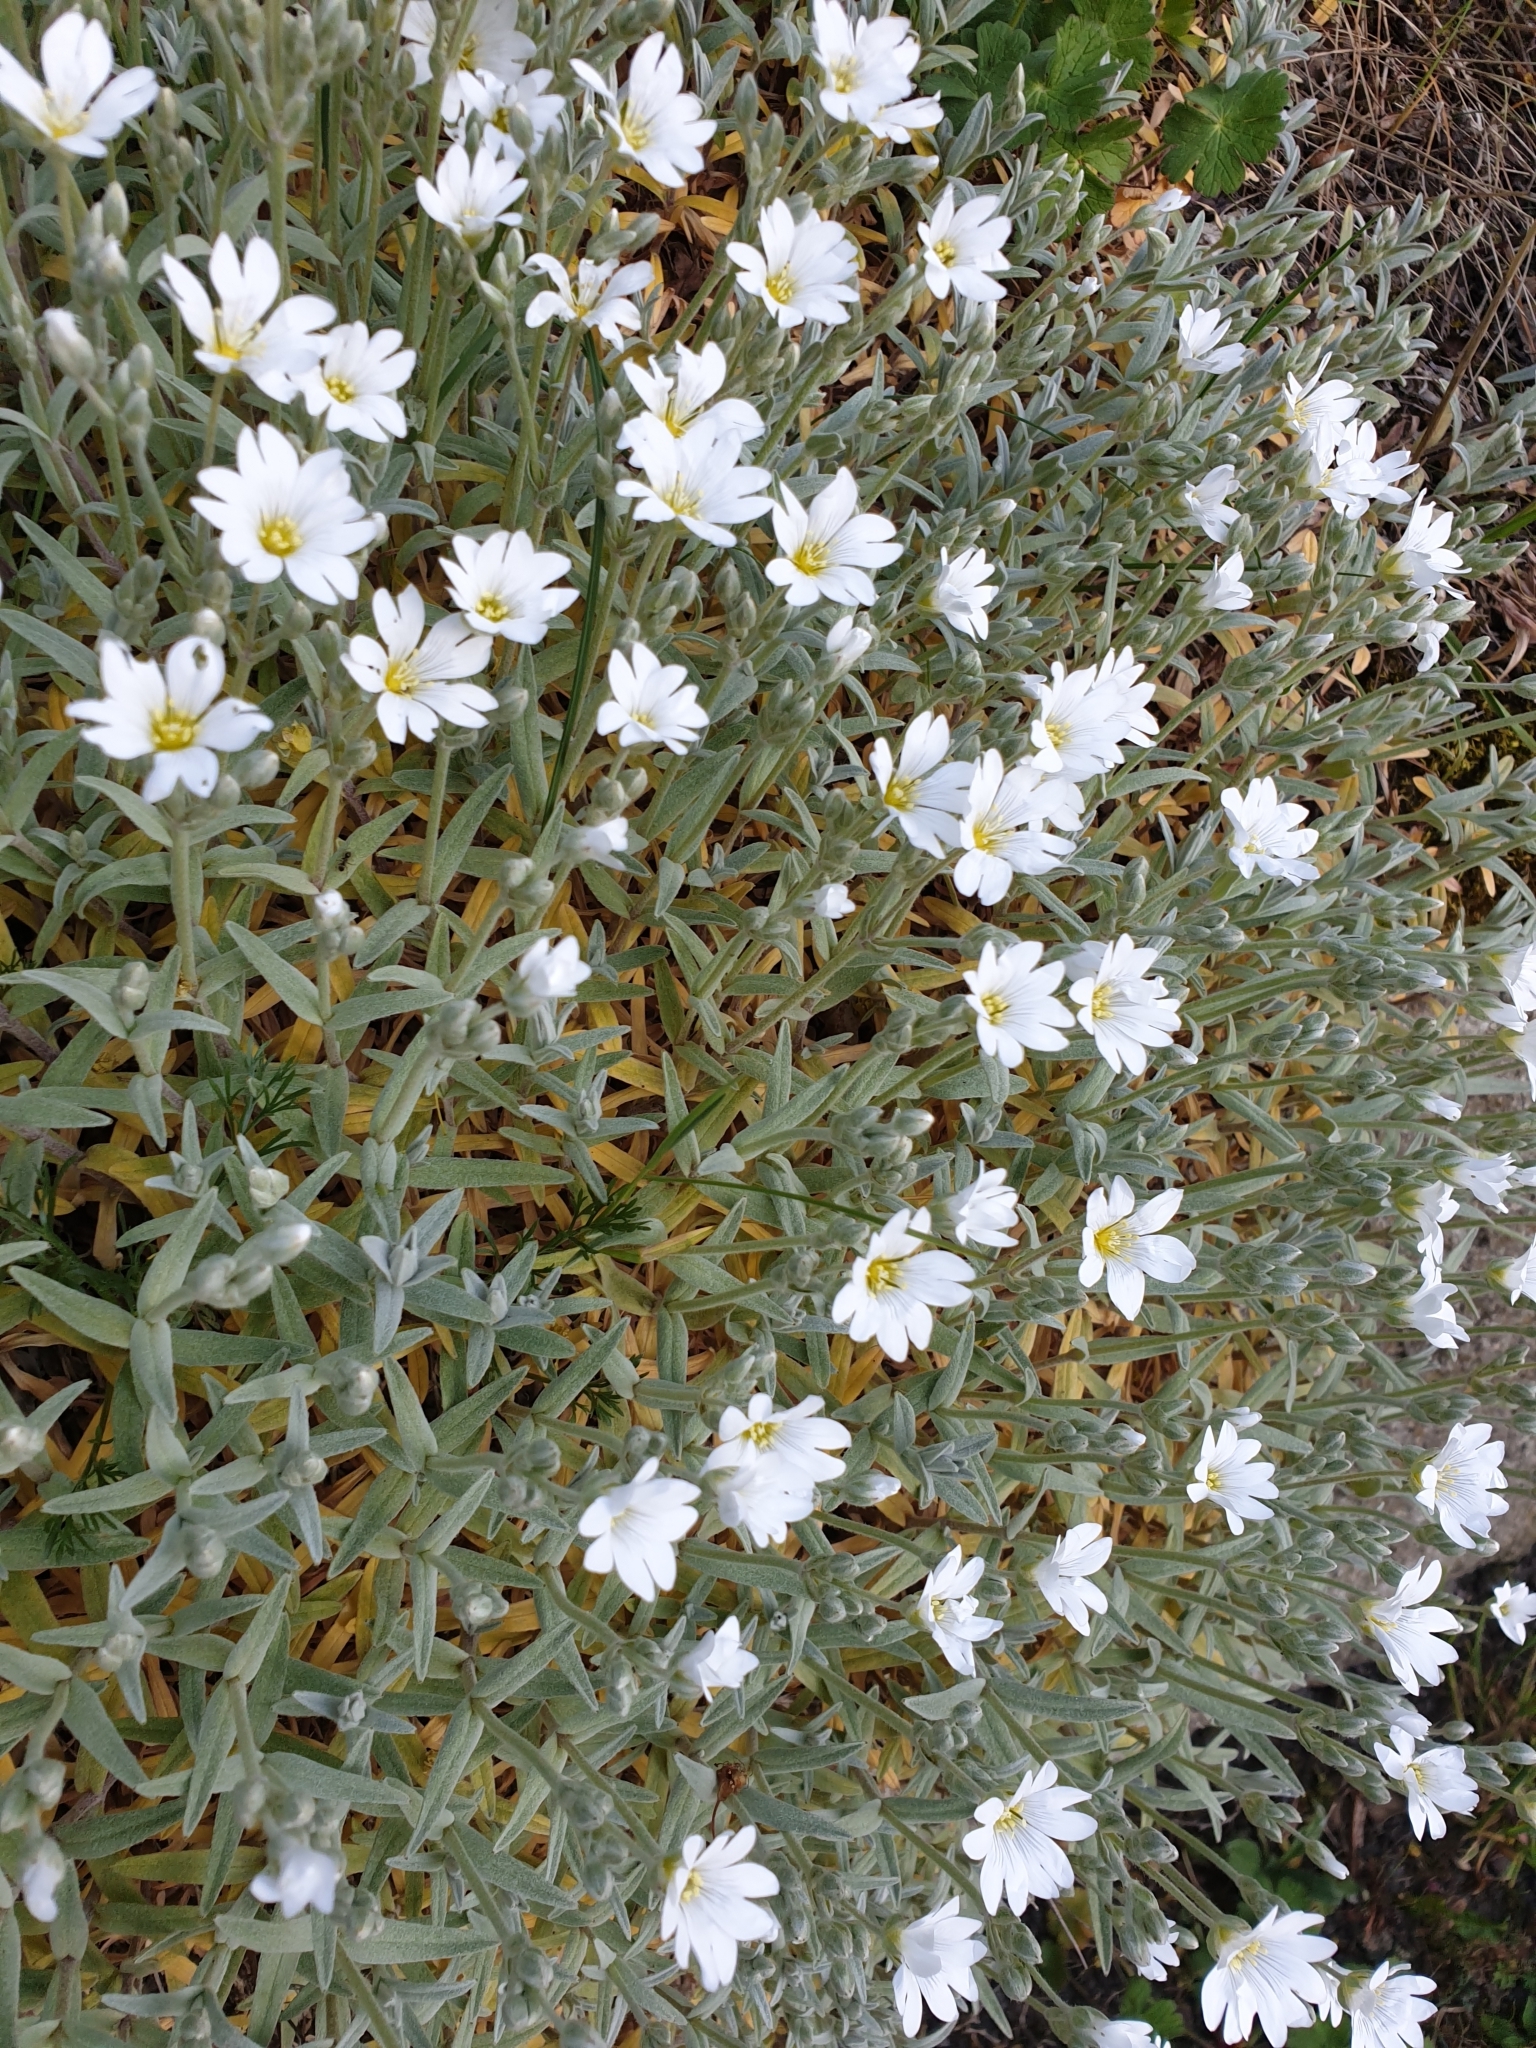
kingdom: Plantae
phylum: Tracheophyta
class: Magnoliopsida
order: Caryophyllales
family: Caryophyllaceae
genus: Cerastium
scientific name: Cerastium tomentosum
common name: Snow-in-summer
